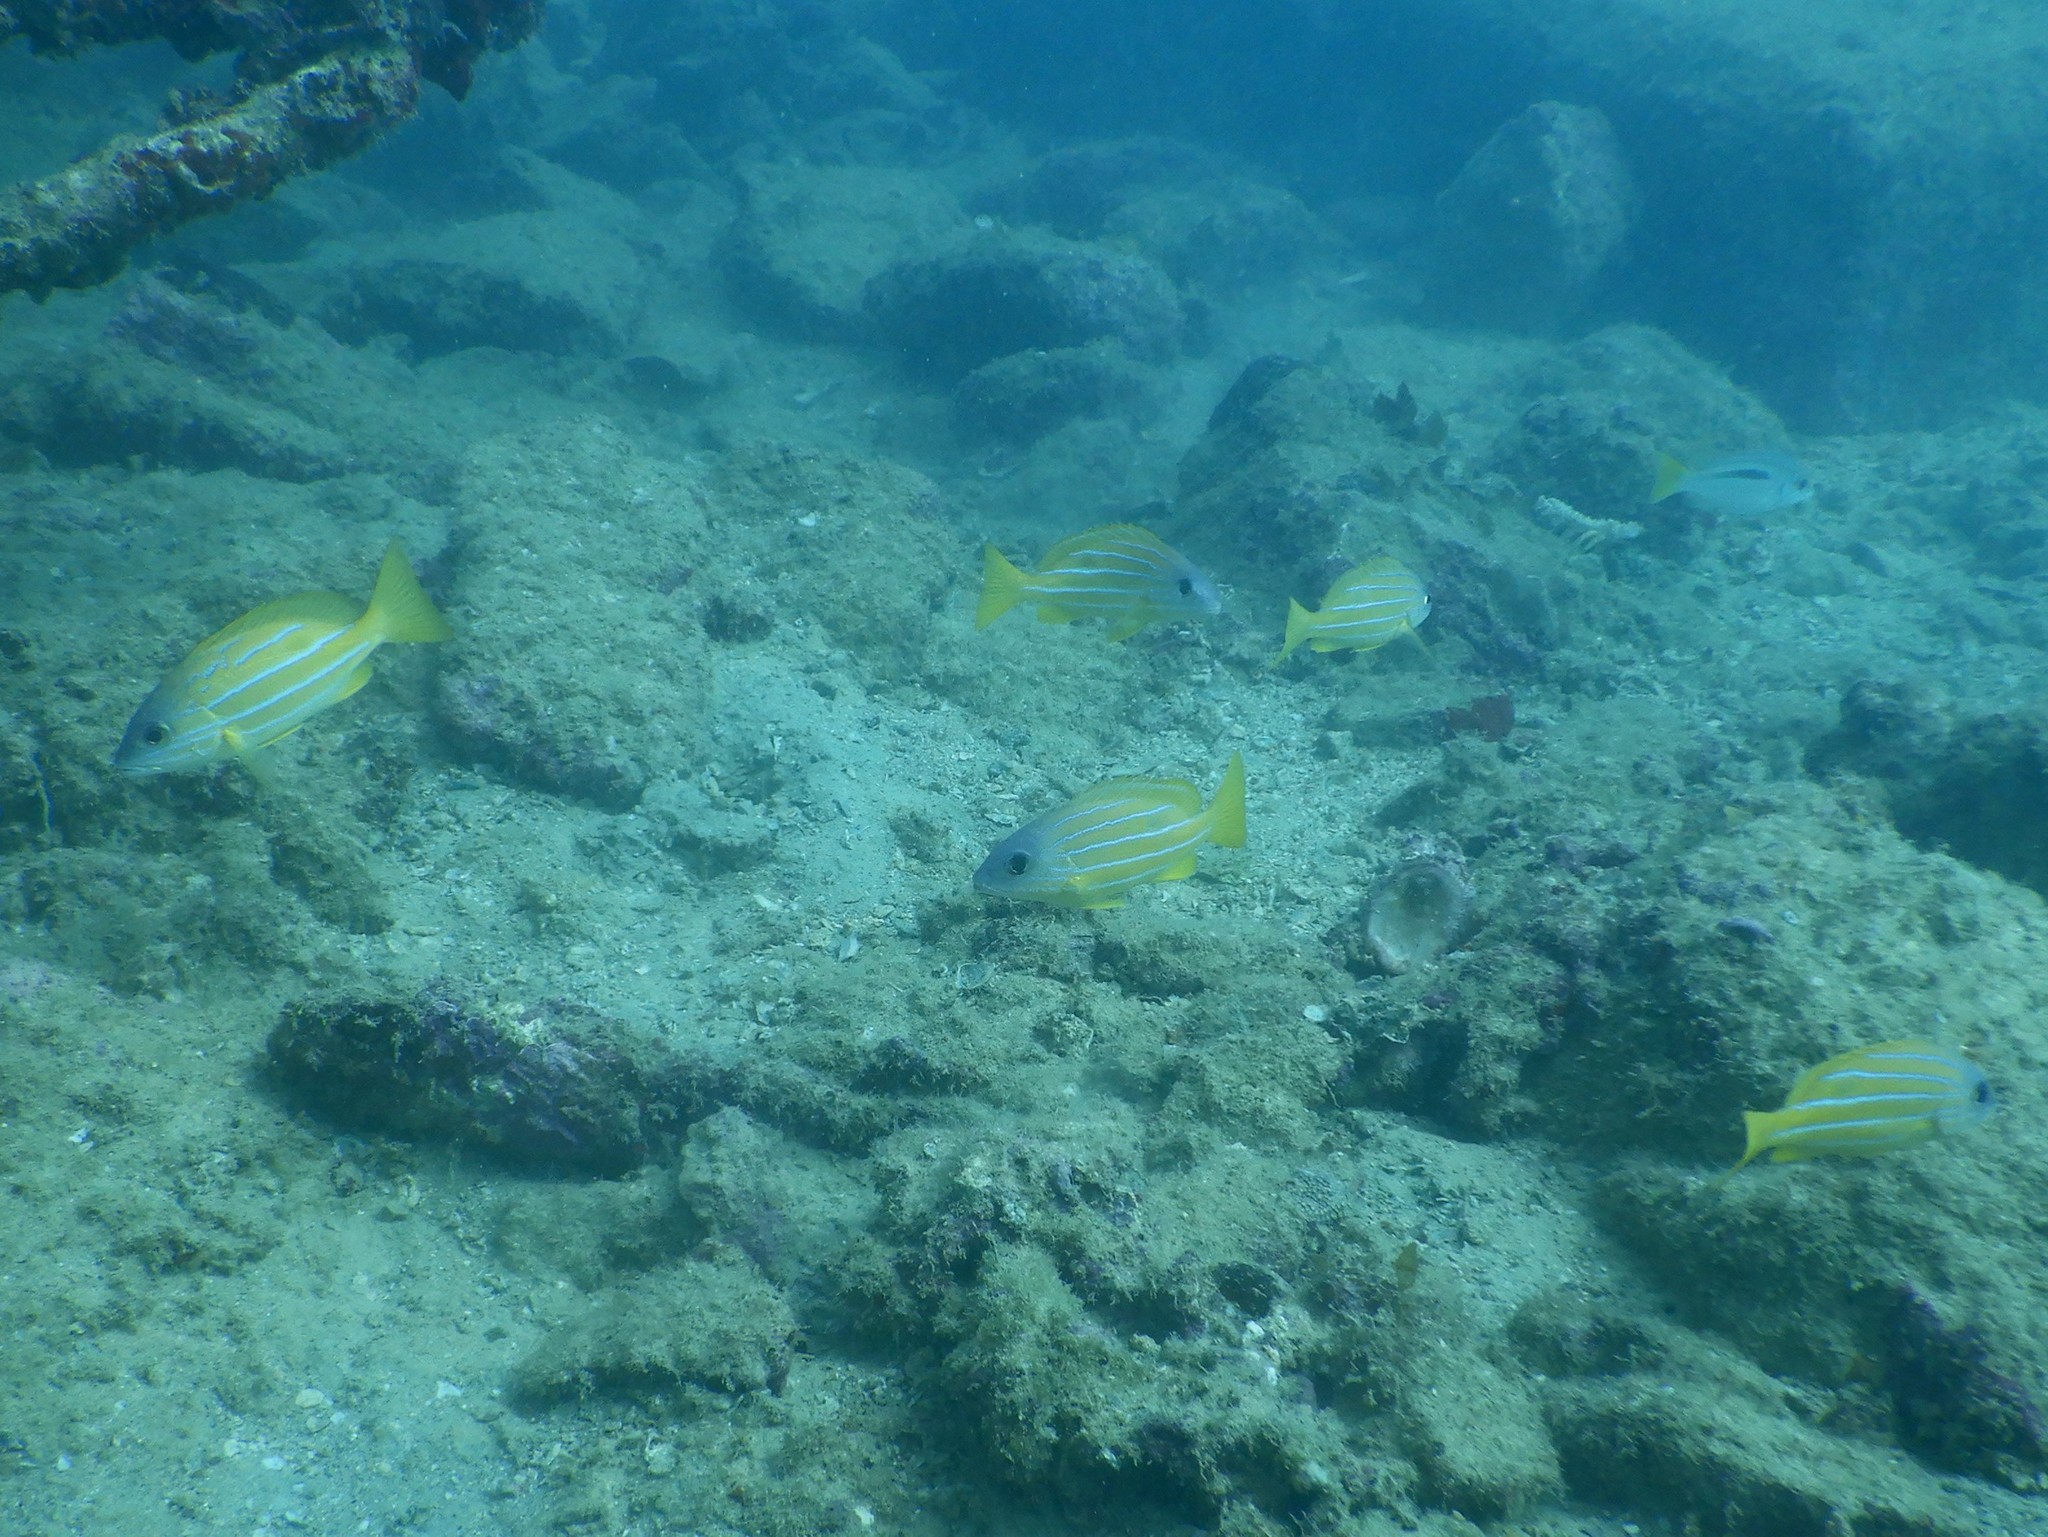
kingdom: Animalia
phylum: Chordata
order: Perciformes
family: Lutjanidae
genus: Lutjanus
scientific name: Lutjanus quinquelineatus
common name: Five-lined snapper
